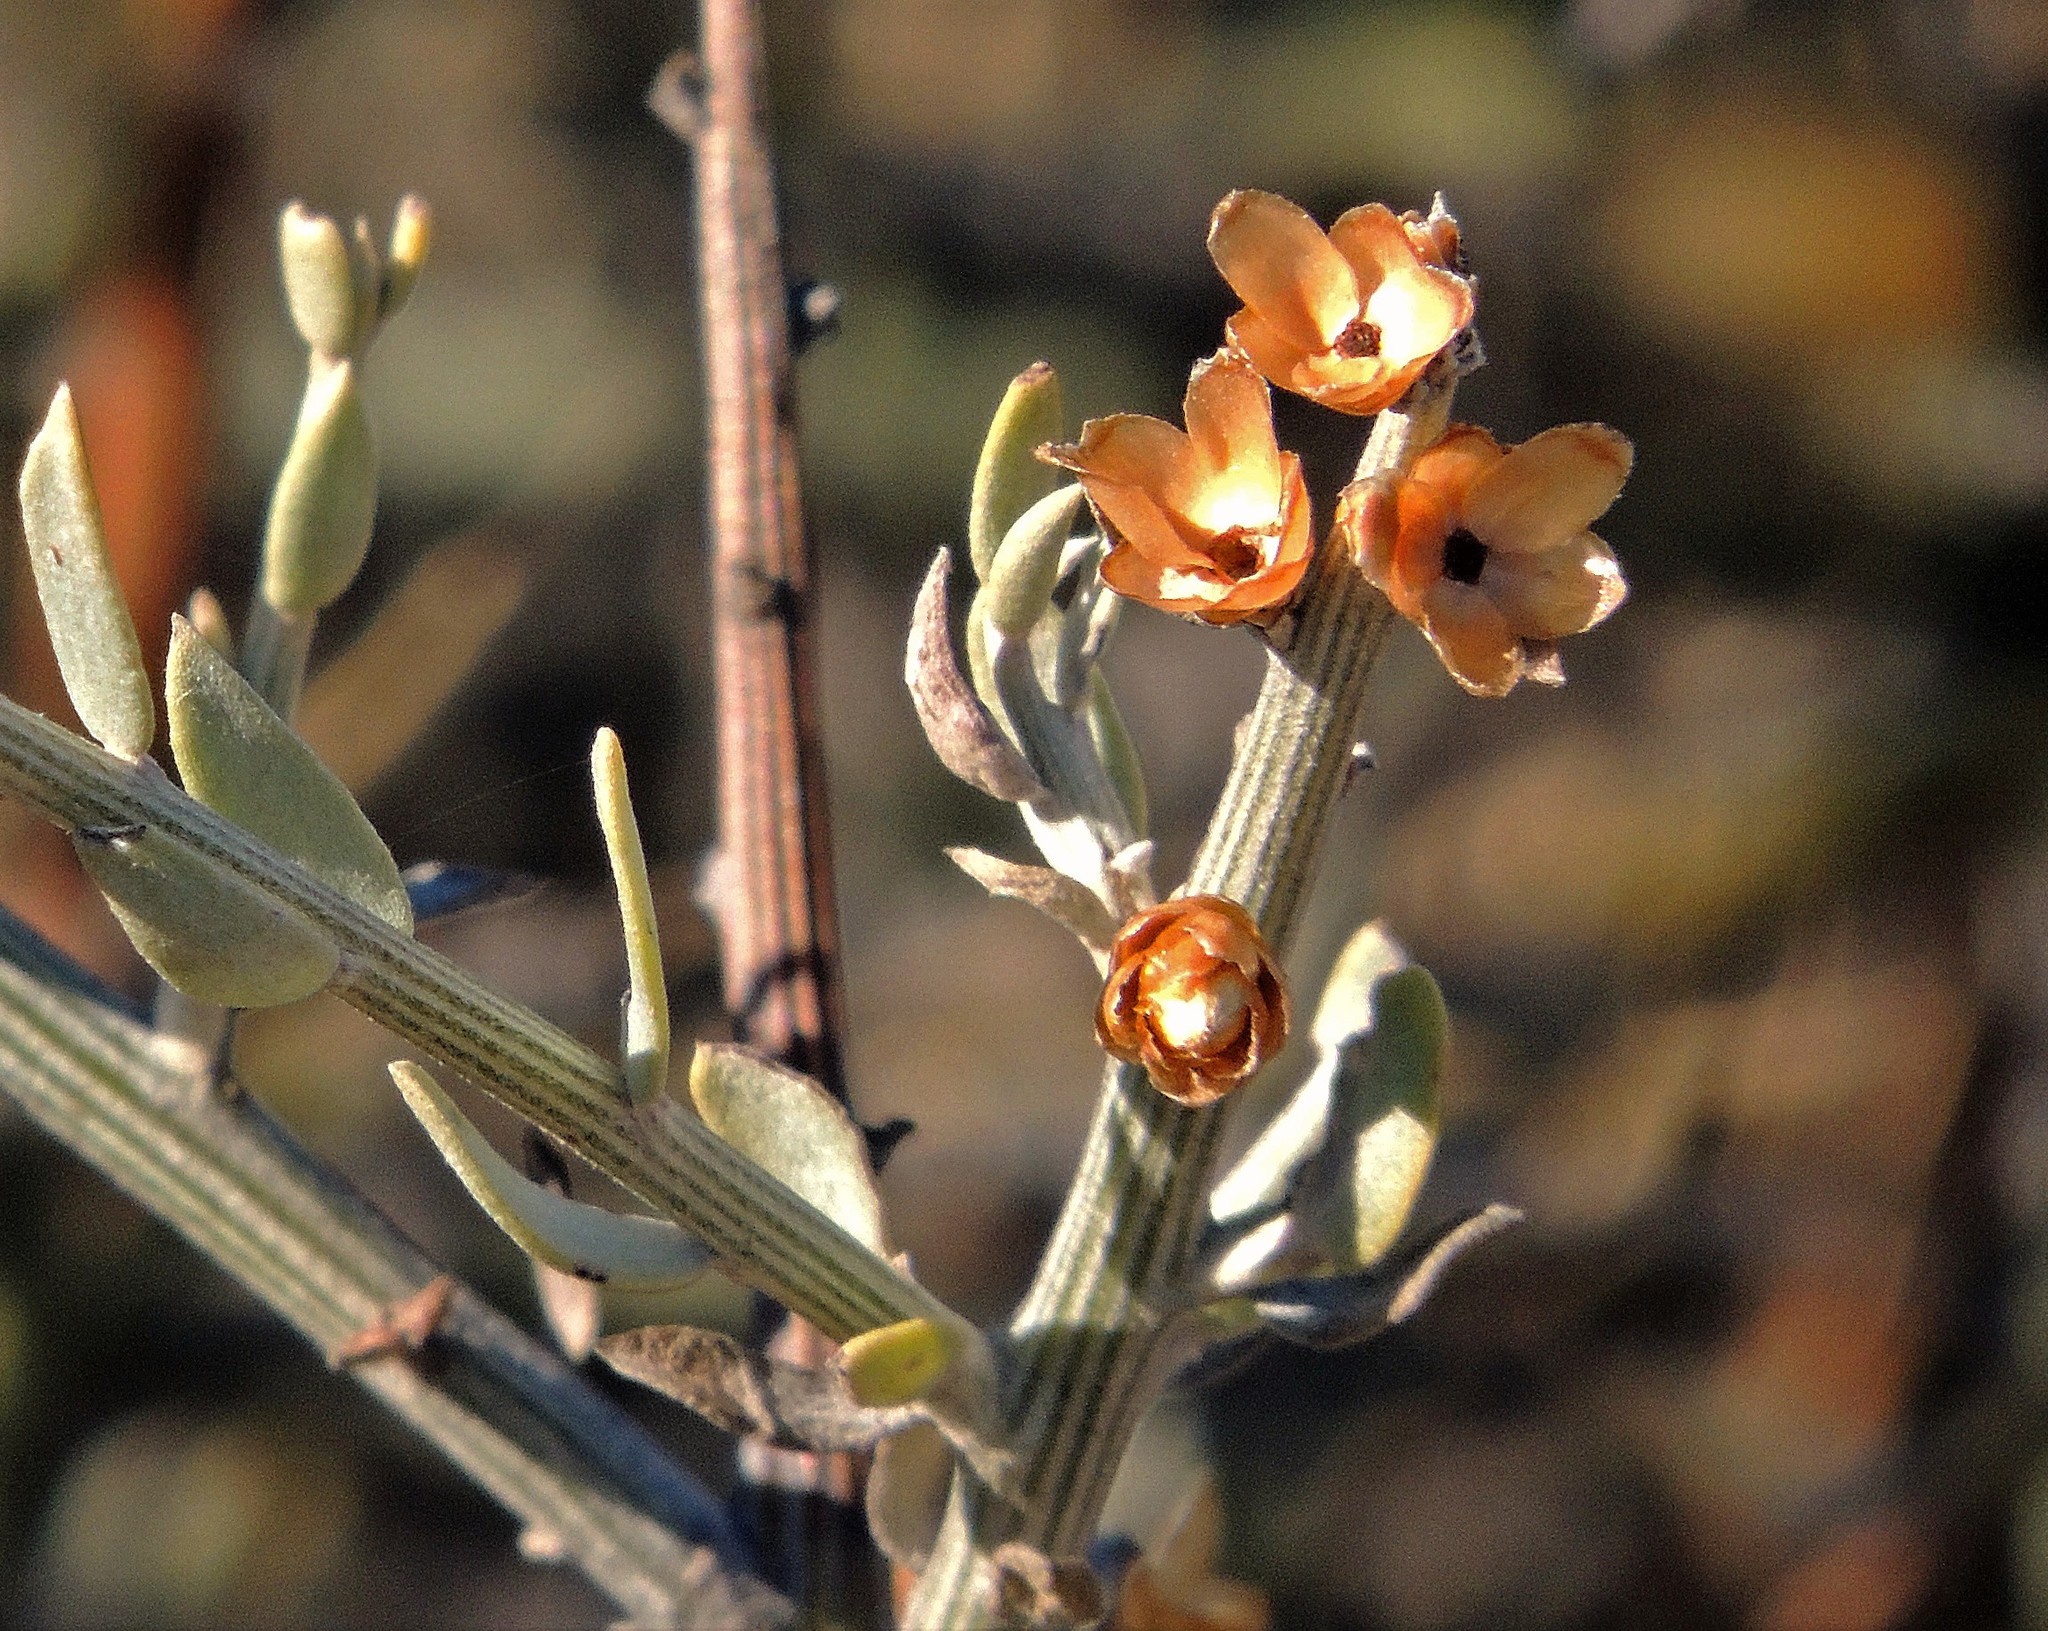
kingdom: Plantae
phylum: Tracheophyta
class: Magnoliopsida
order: Asterales
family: Asteraceae
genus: Cyclolepis
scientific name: Cyclolepis genistoides
